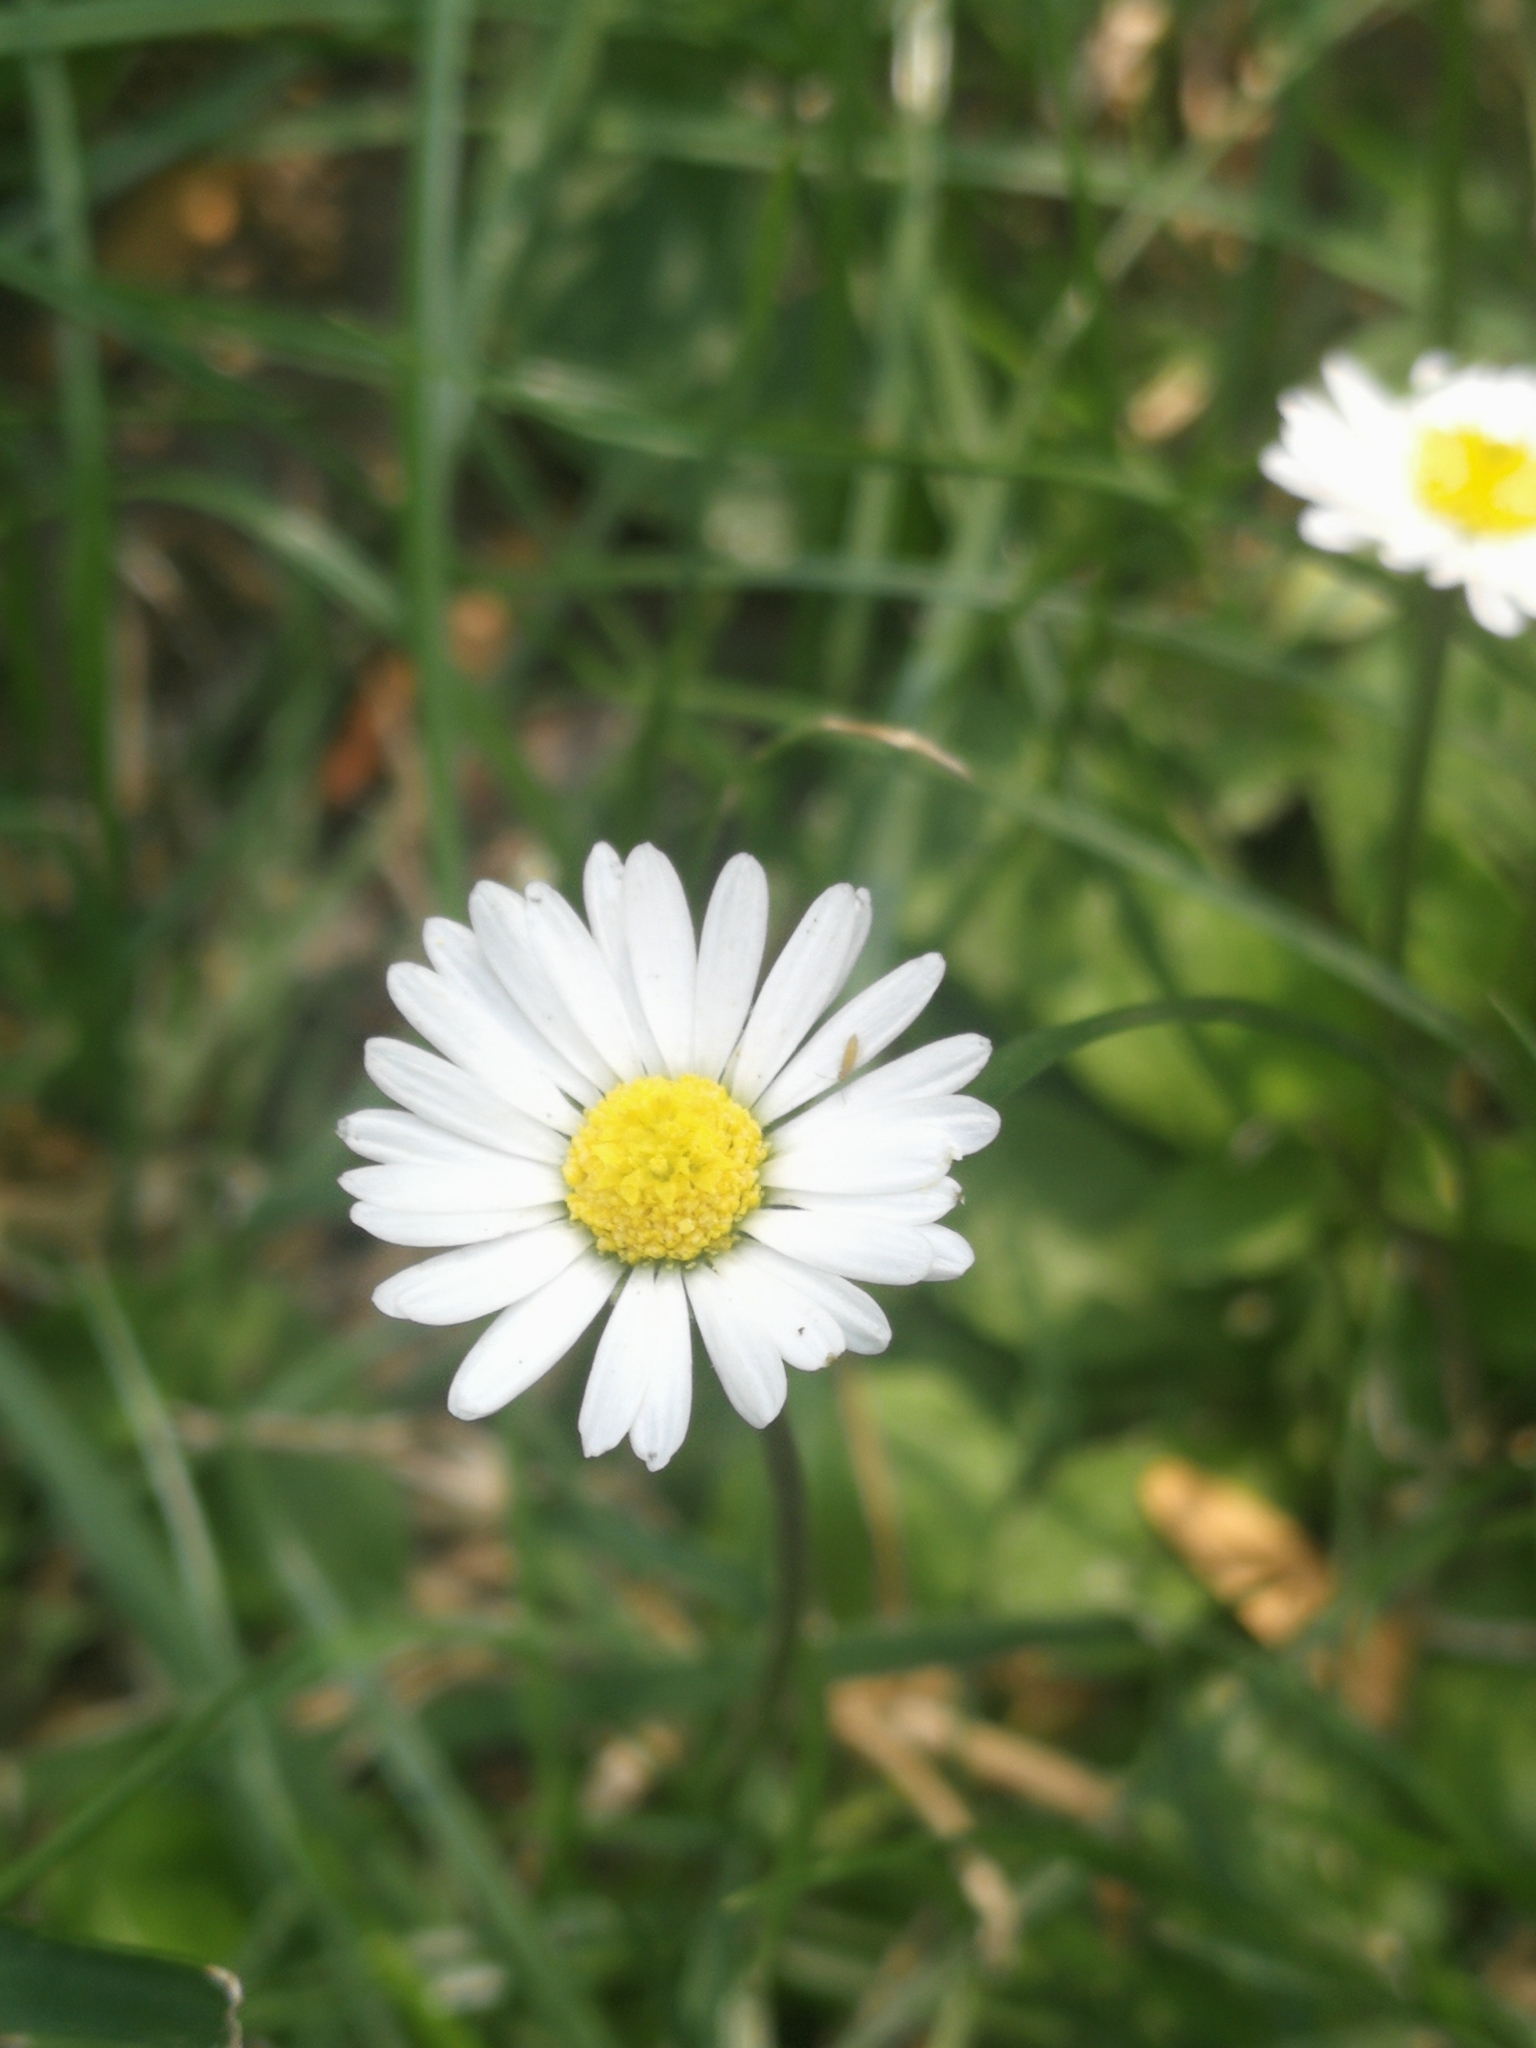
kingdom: Plantae
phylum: Tracheophyta
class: Magnoliopsida
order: Asterales
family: Asteraceae
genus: Bellis
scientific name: Bellis perennis
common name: Lawndaisy
